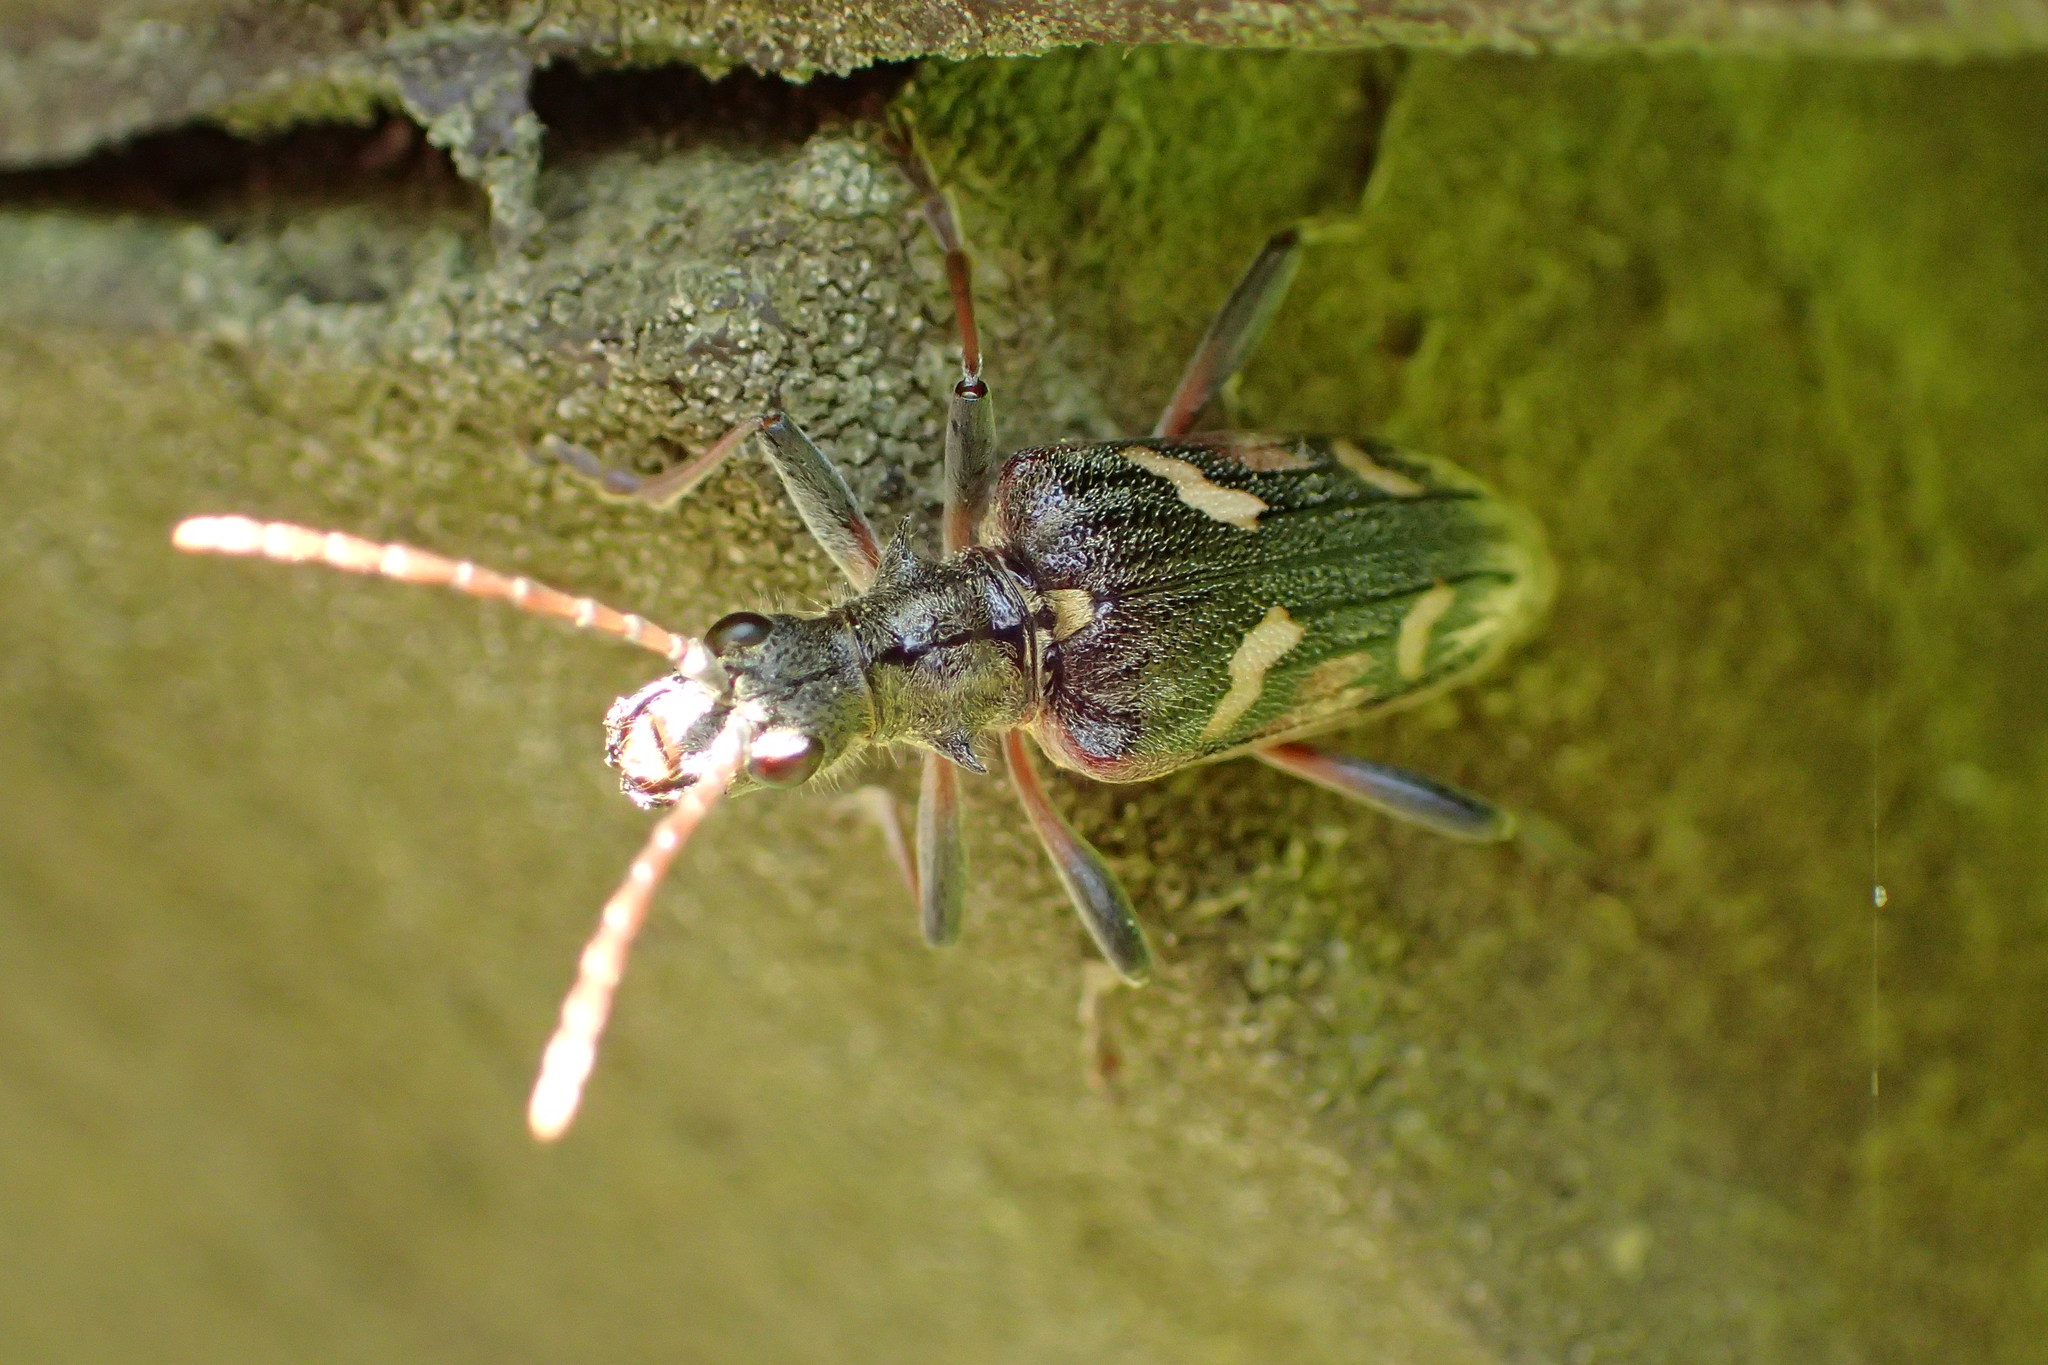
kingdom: Animalia
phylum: Arthropoda
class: Insecta
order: Coleoptera
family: Cerambycidae
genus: Rhagium
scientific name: Rhagium bifasciatum
